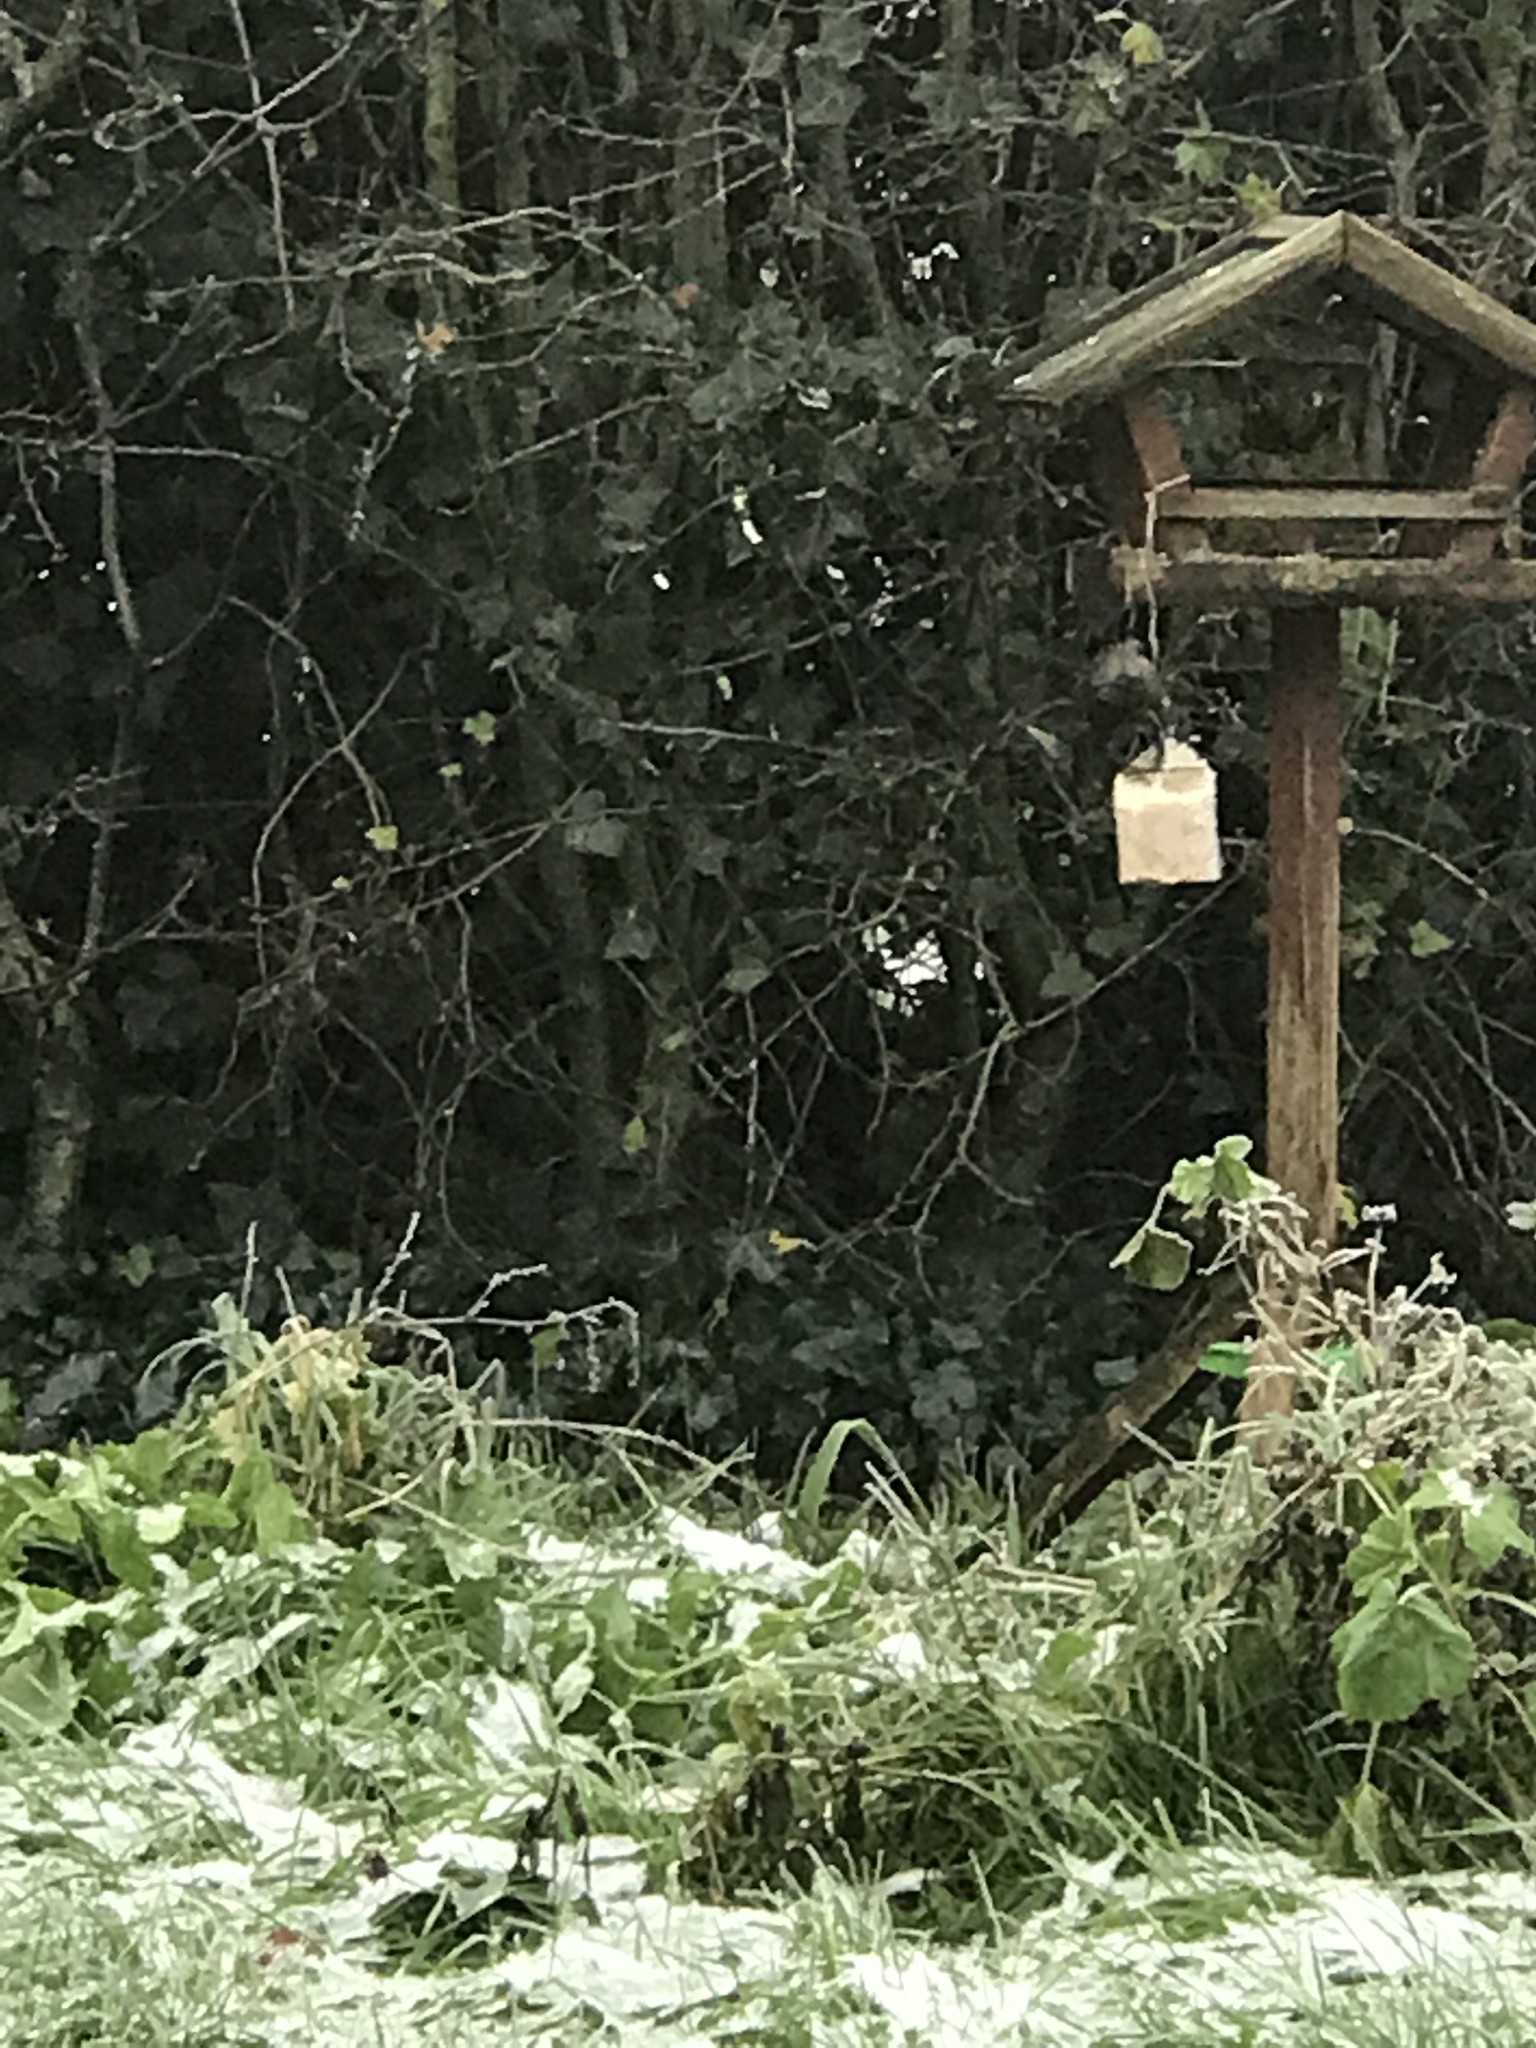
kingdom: Animalia
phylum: Chordata
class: Aves
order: Passeriformes
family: Sturnidae
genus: Sturnus
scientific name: Sturnus vulgaris
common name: Common starling
